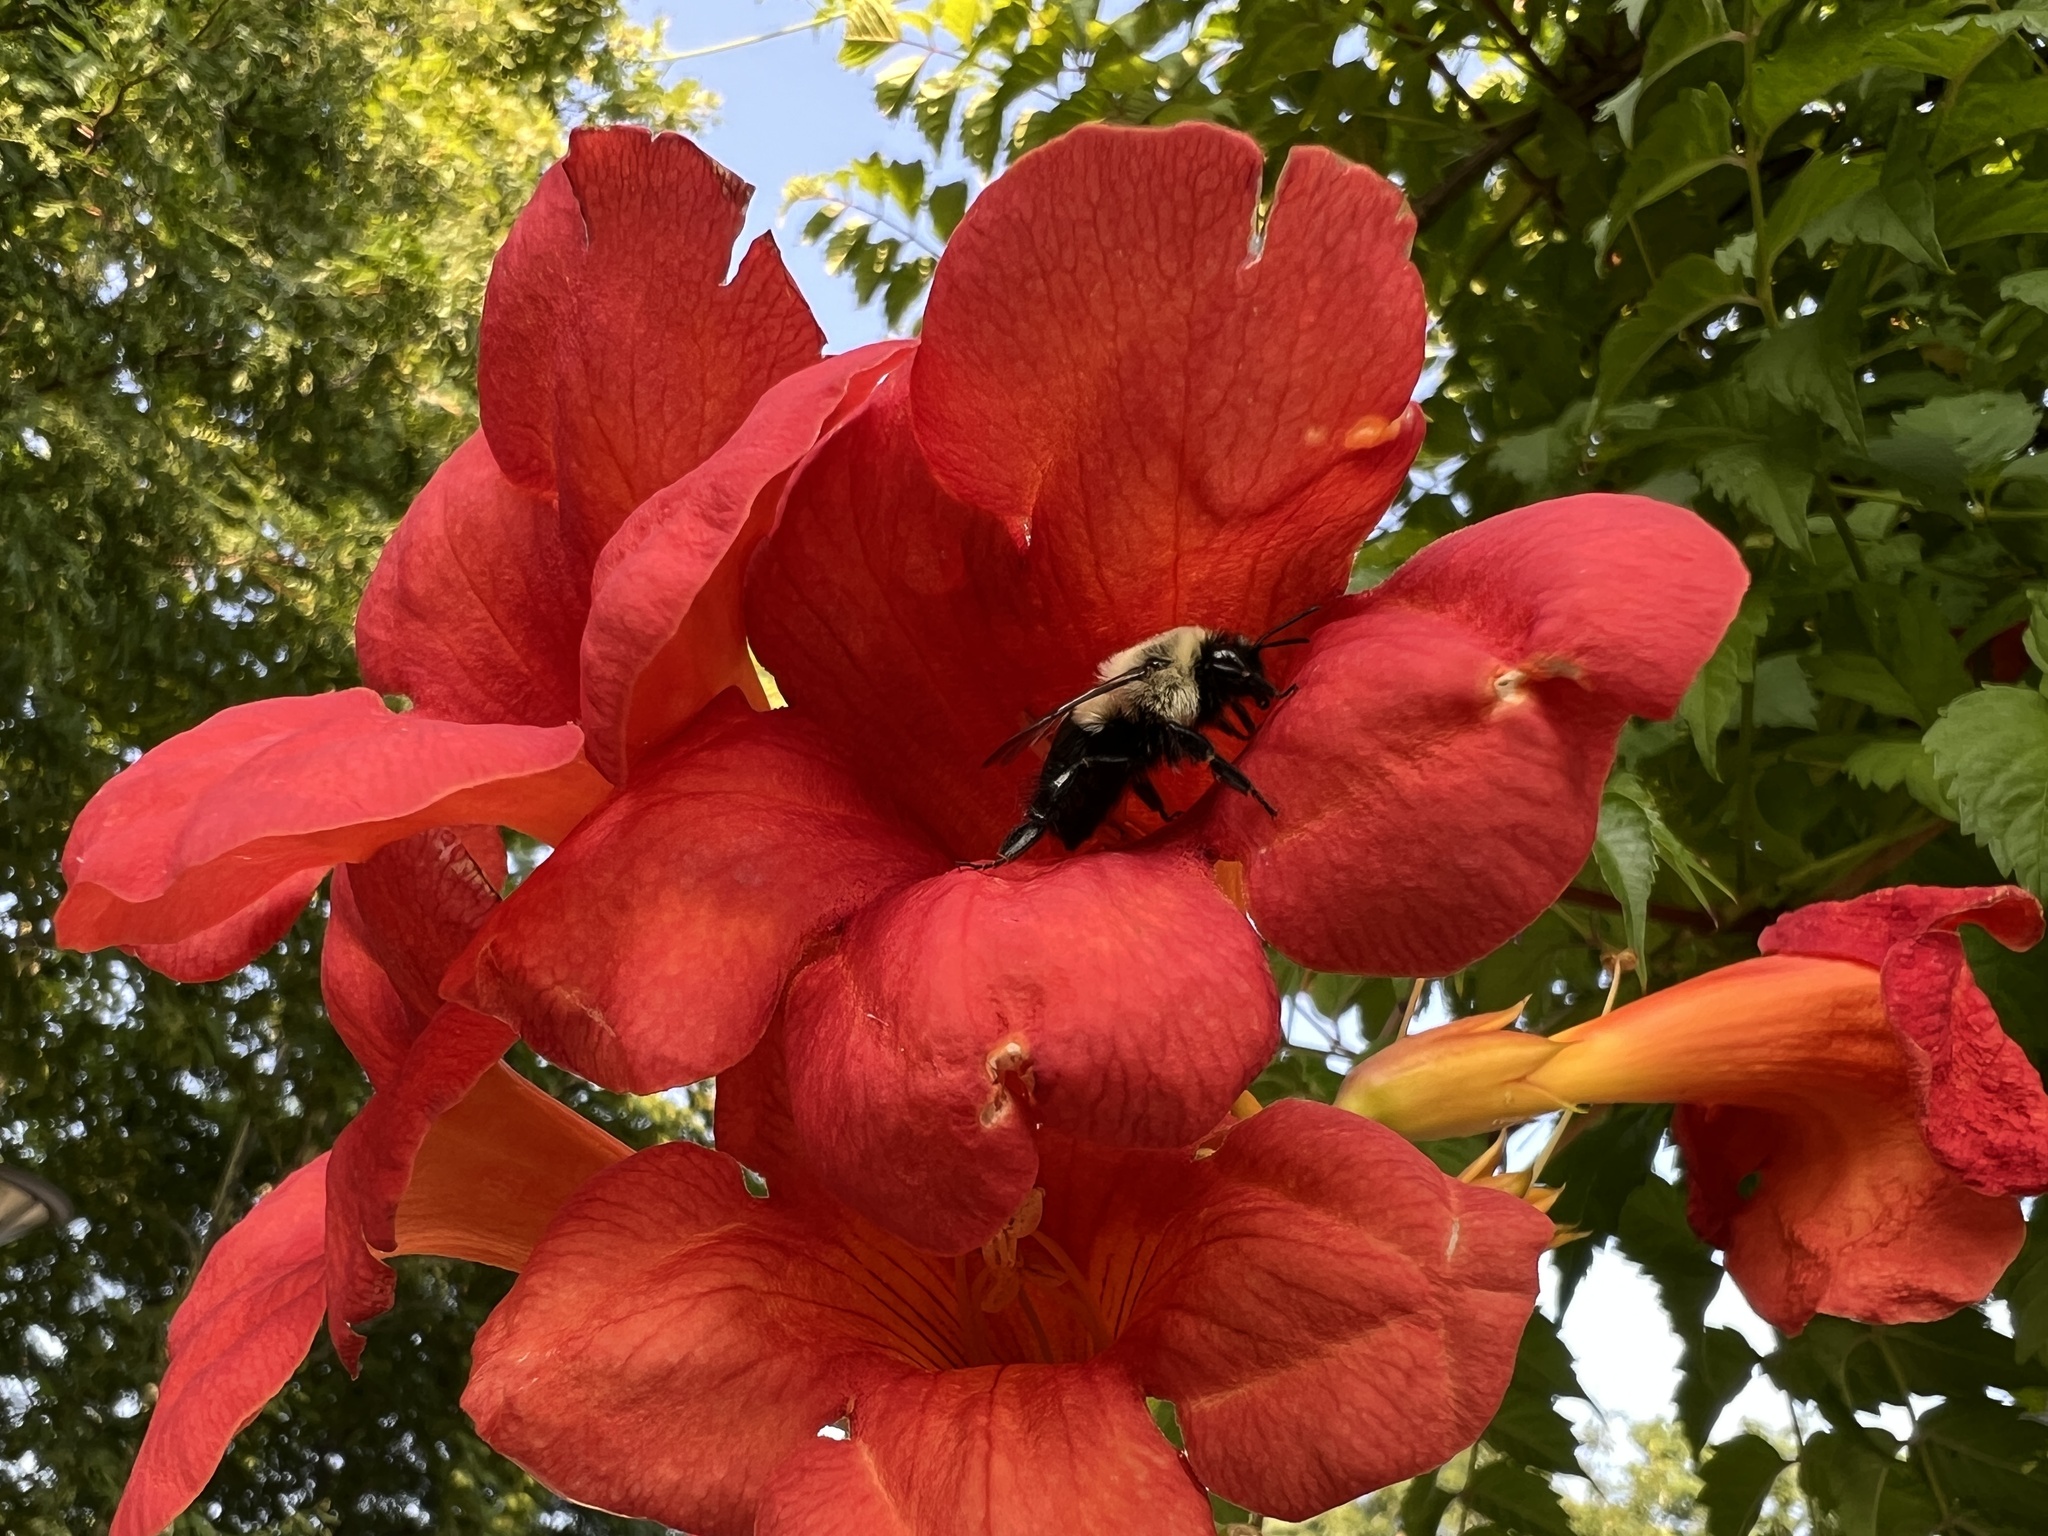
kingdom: Plantae
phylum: Tracheophyta
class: Magnoliopsida
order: Lamiales
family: Bignoniaceae
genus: Campsis
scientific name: Campsis radicans
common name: Trumpet-creeper
